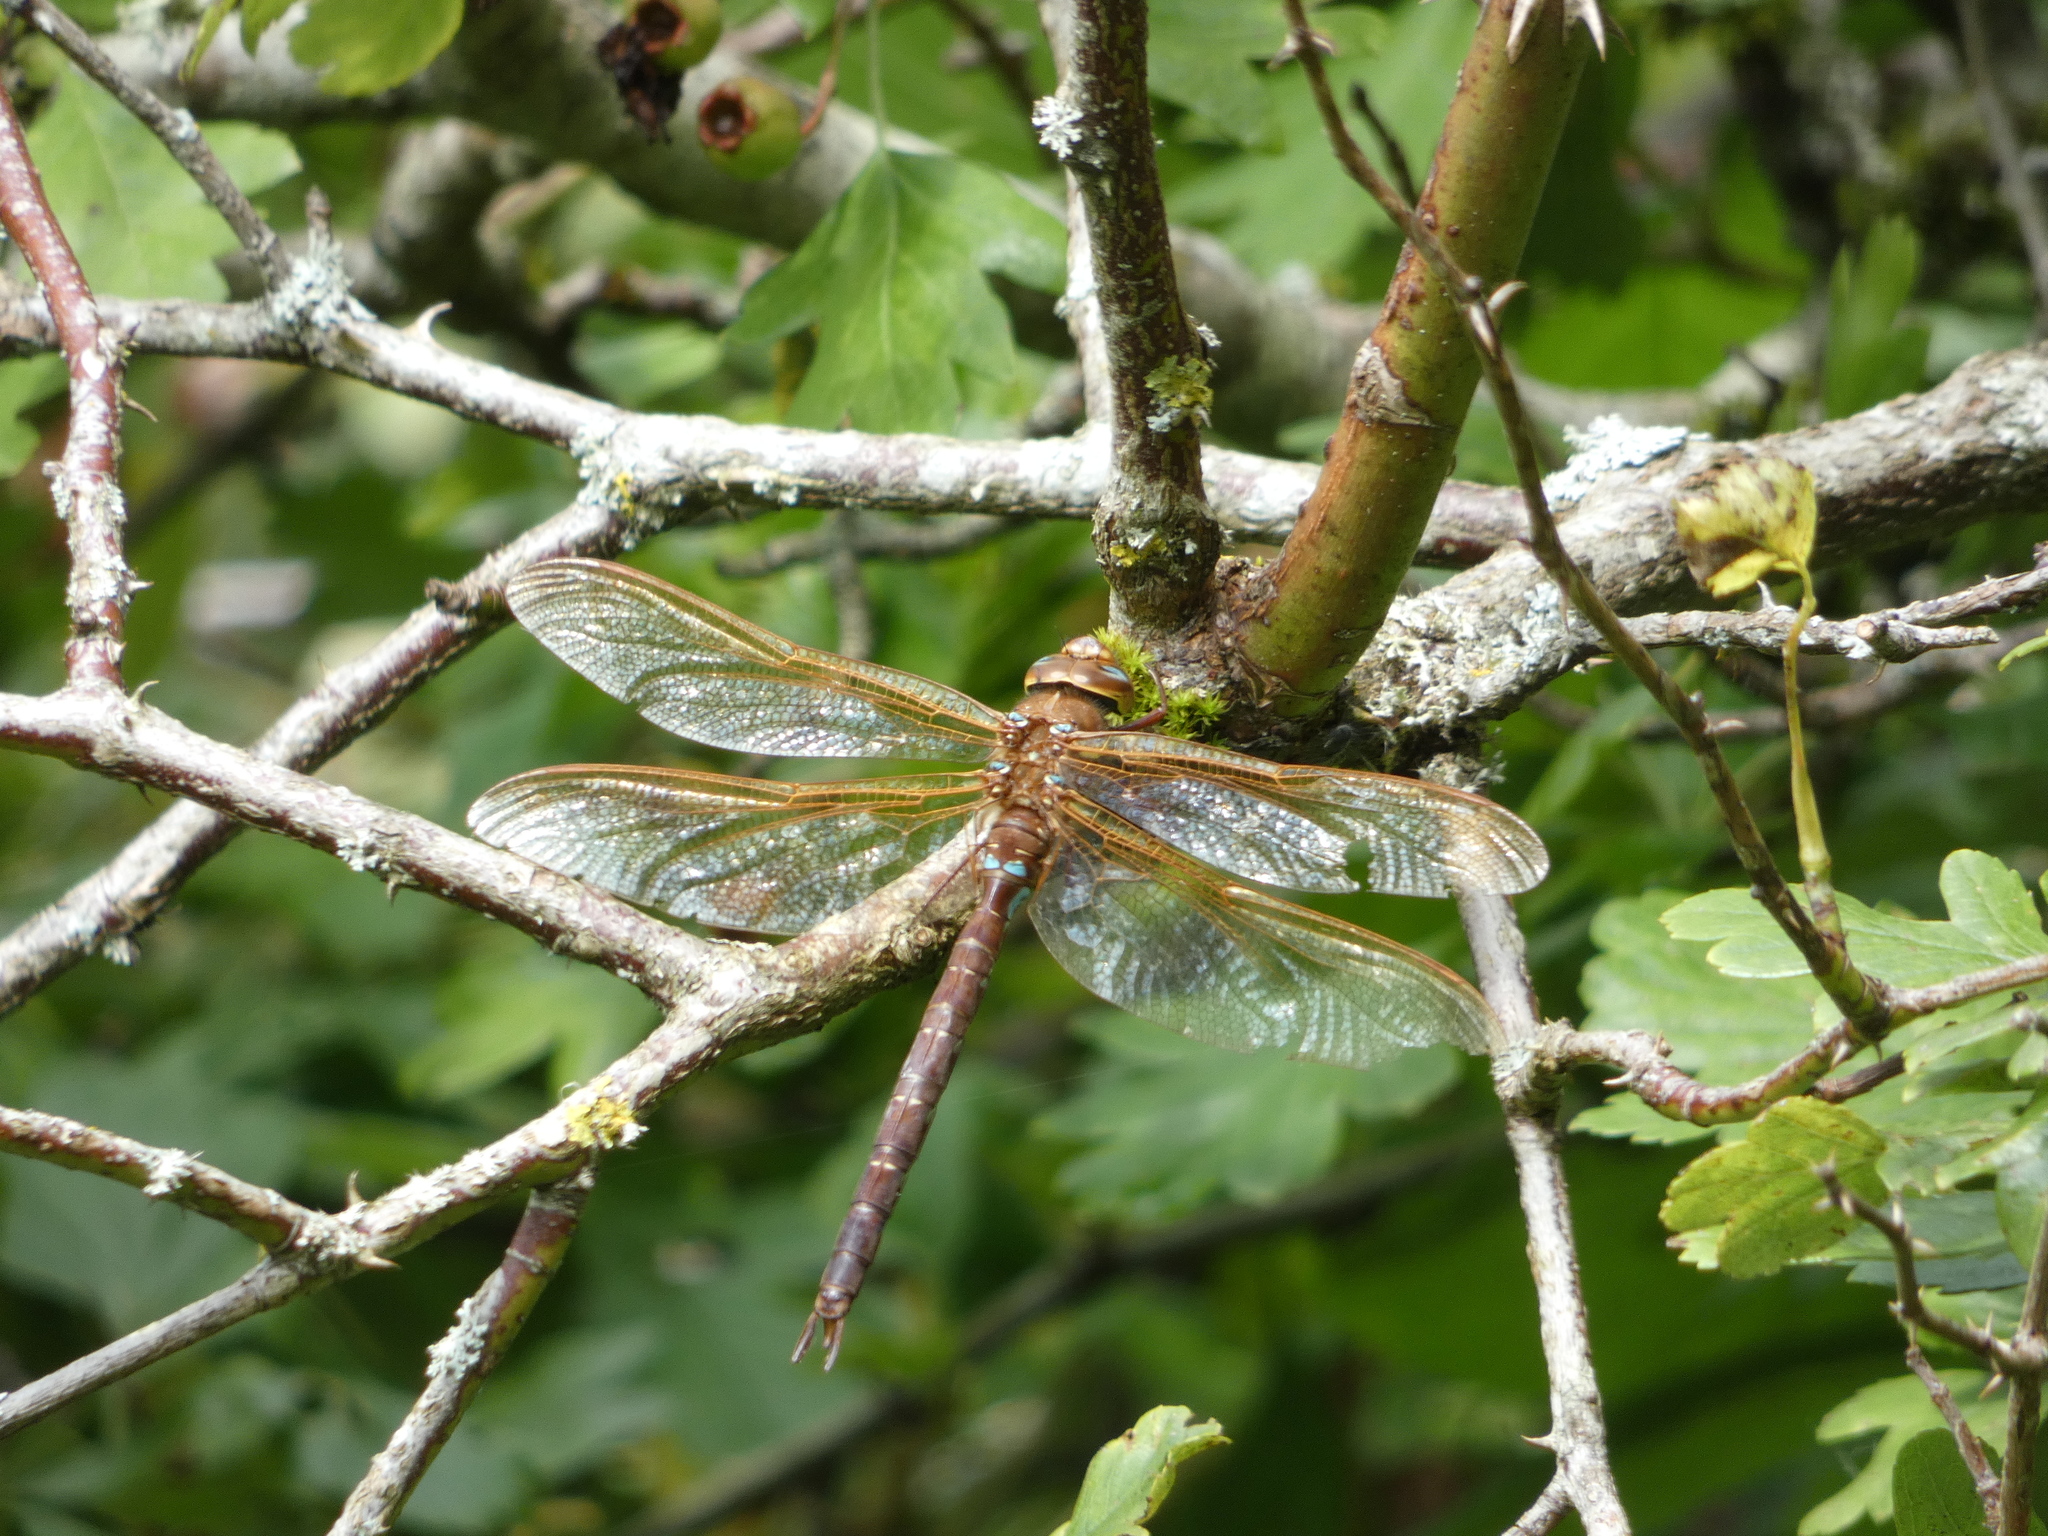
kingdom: Animalia
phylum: Arthropoda
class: Insecta
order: Odonata
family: Aeshnidae
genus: Aeshna
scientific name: Aeshna grandis
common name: Brown hawker
